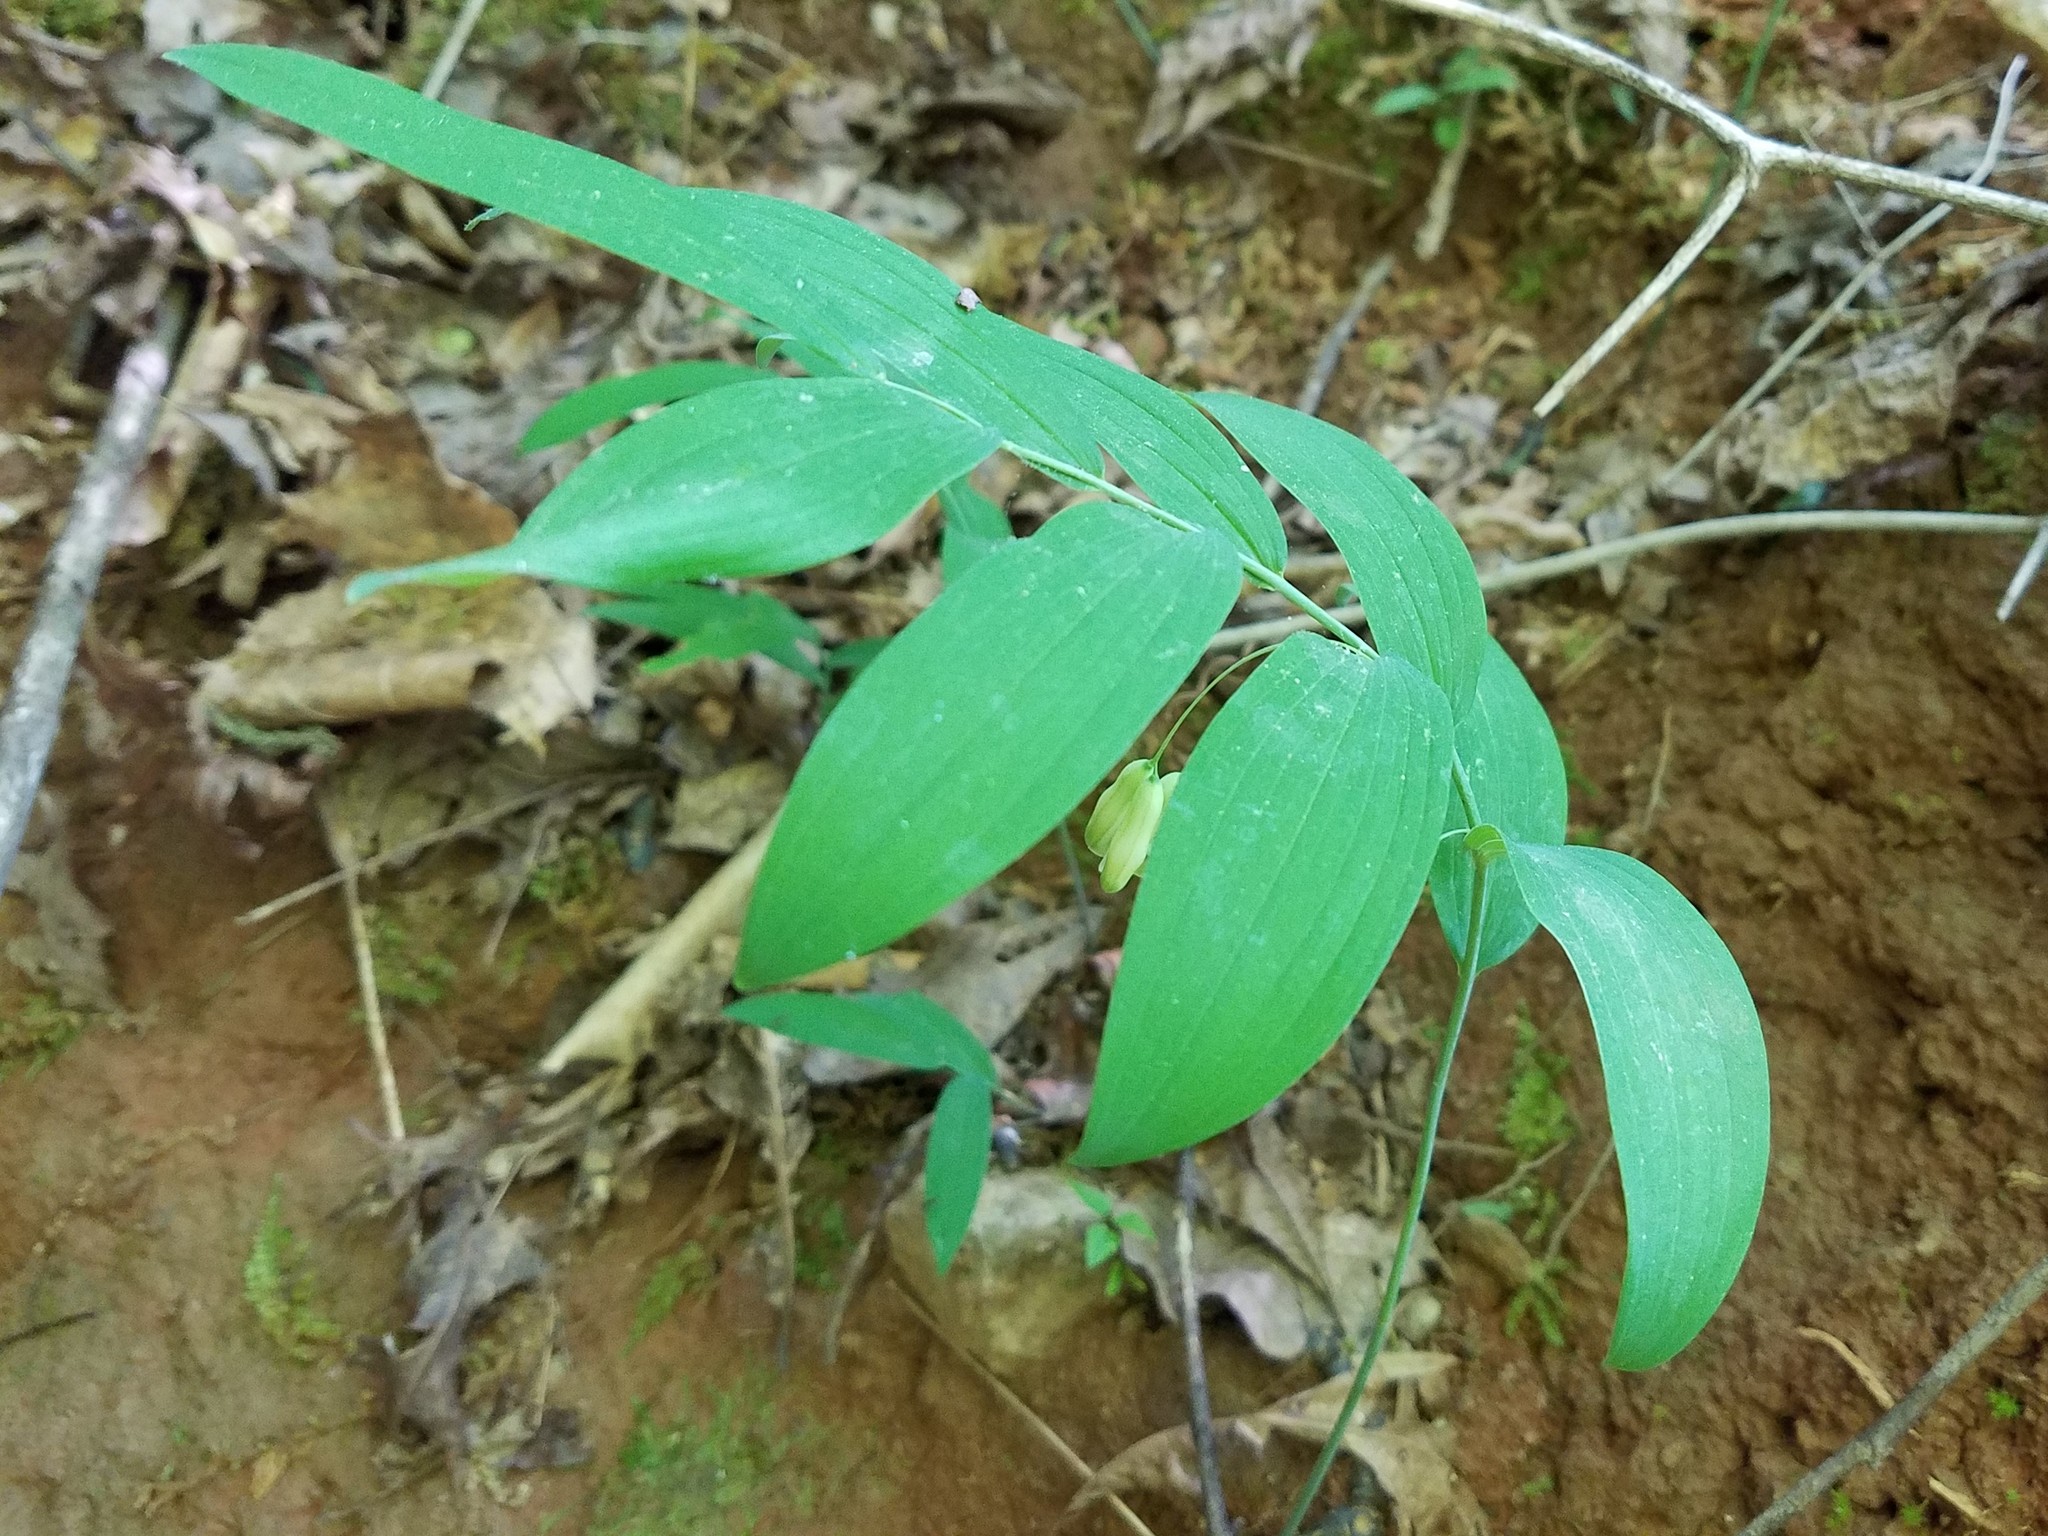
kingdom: Plantae
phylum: Tracheophyta
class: Liliopsida
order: Asparagales
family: Asparagaceae
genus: Polygonatum
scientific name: Polygonatum biflorum
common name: American solomon's-seal
